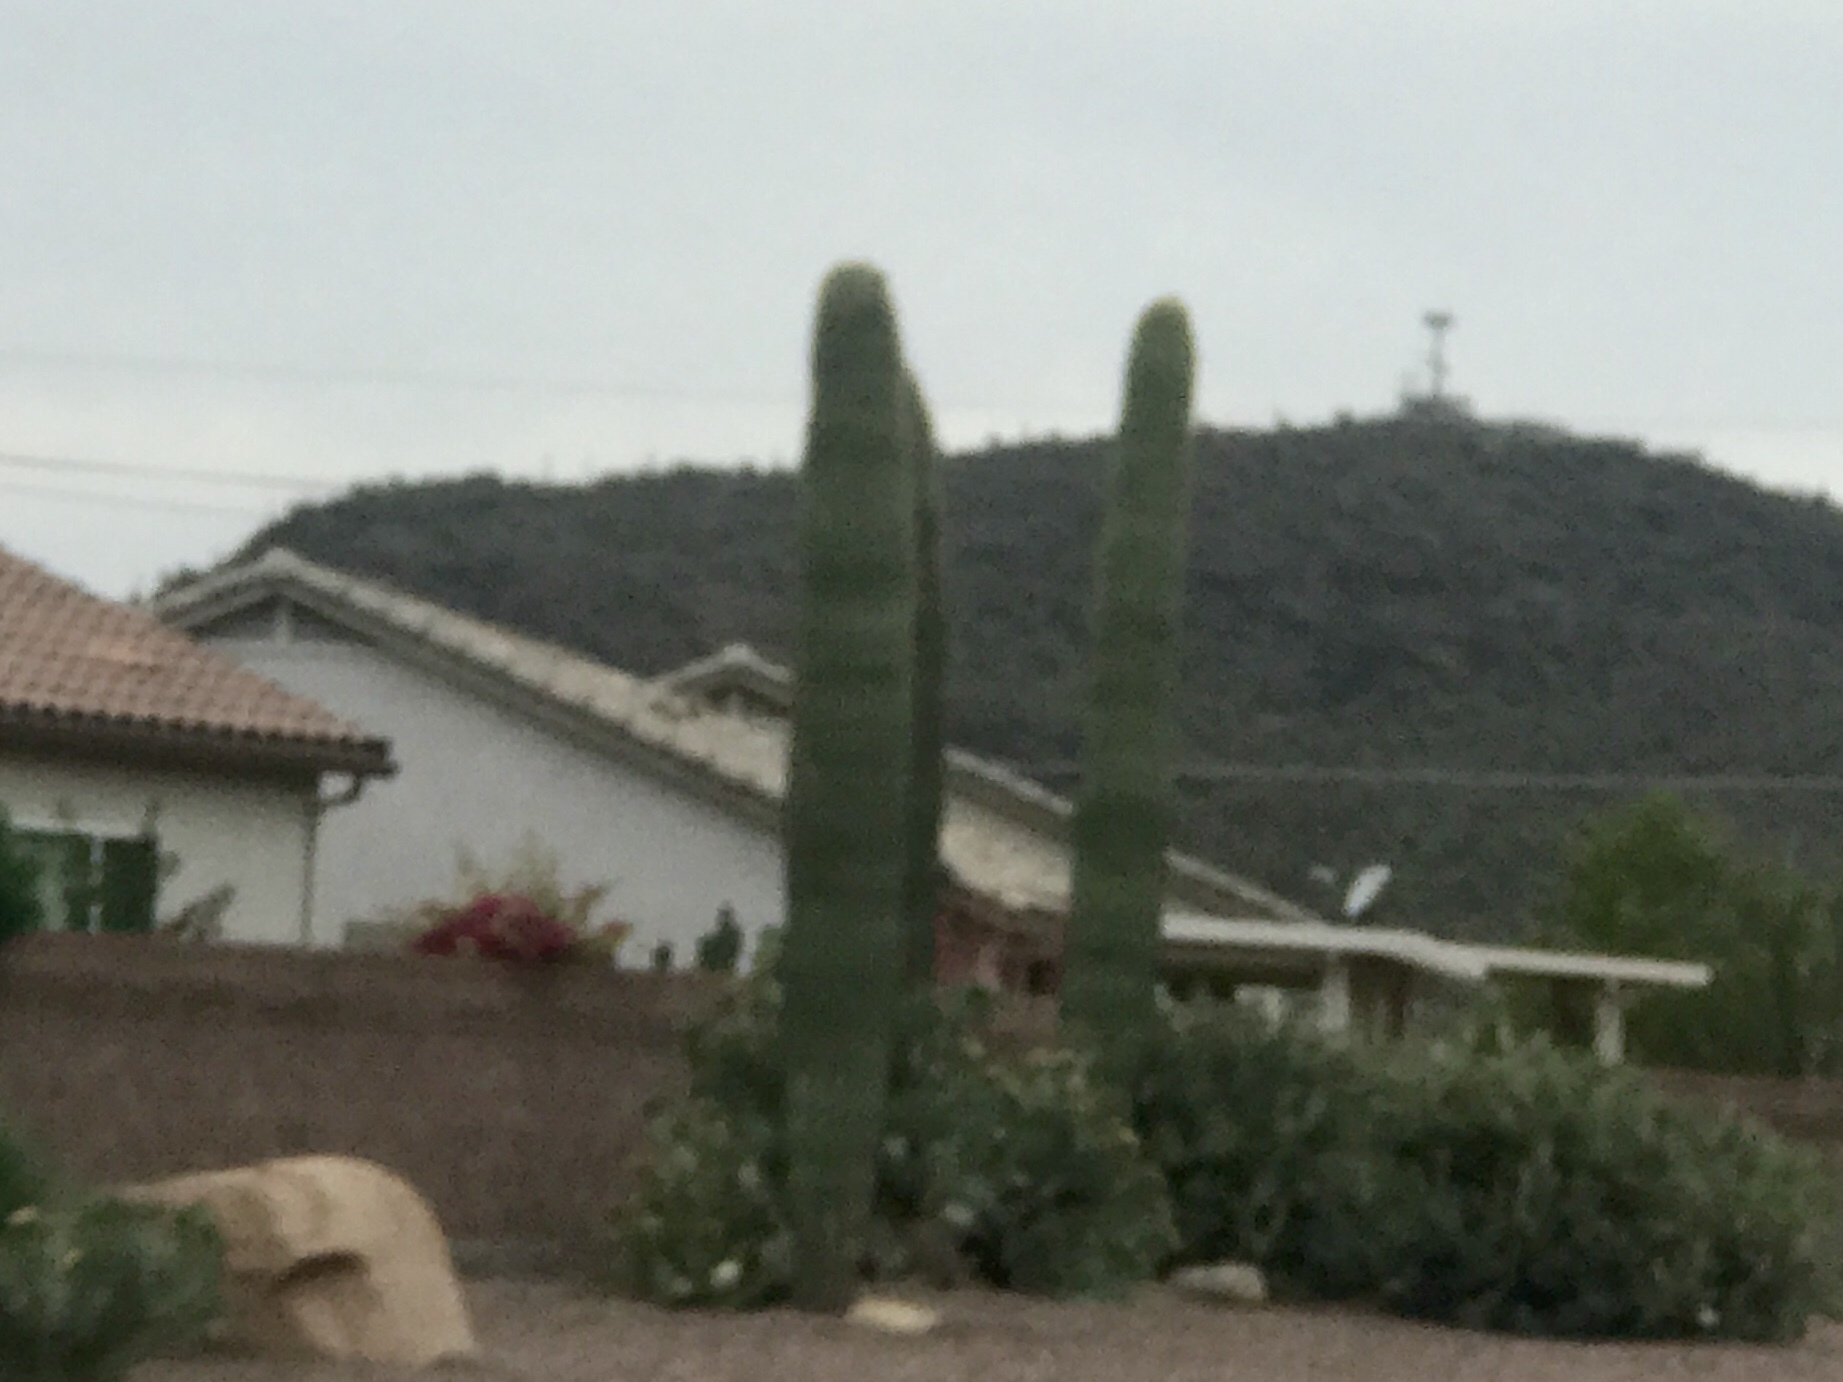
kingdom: Plantae
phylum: Tracheophyta
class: Magnoliopsida
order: Caryophyllales
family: Cactaceae
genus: Carnegiea
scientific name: Carnegiea gigantea
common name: Saguaro
